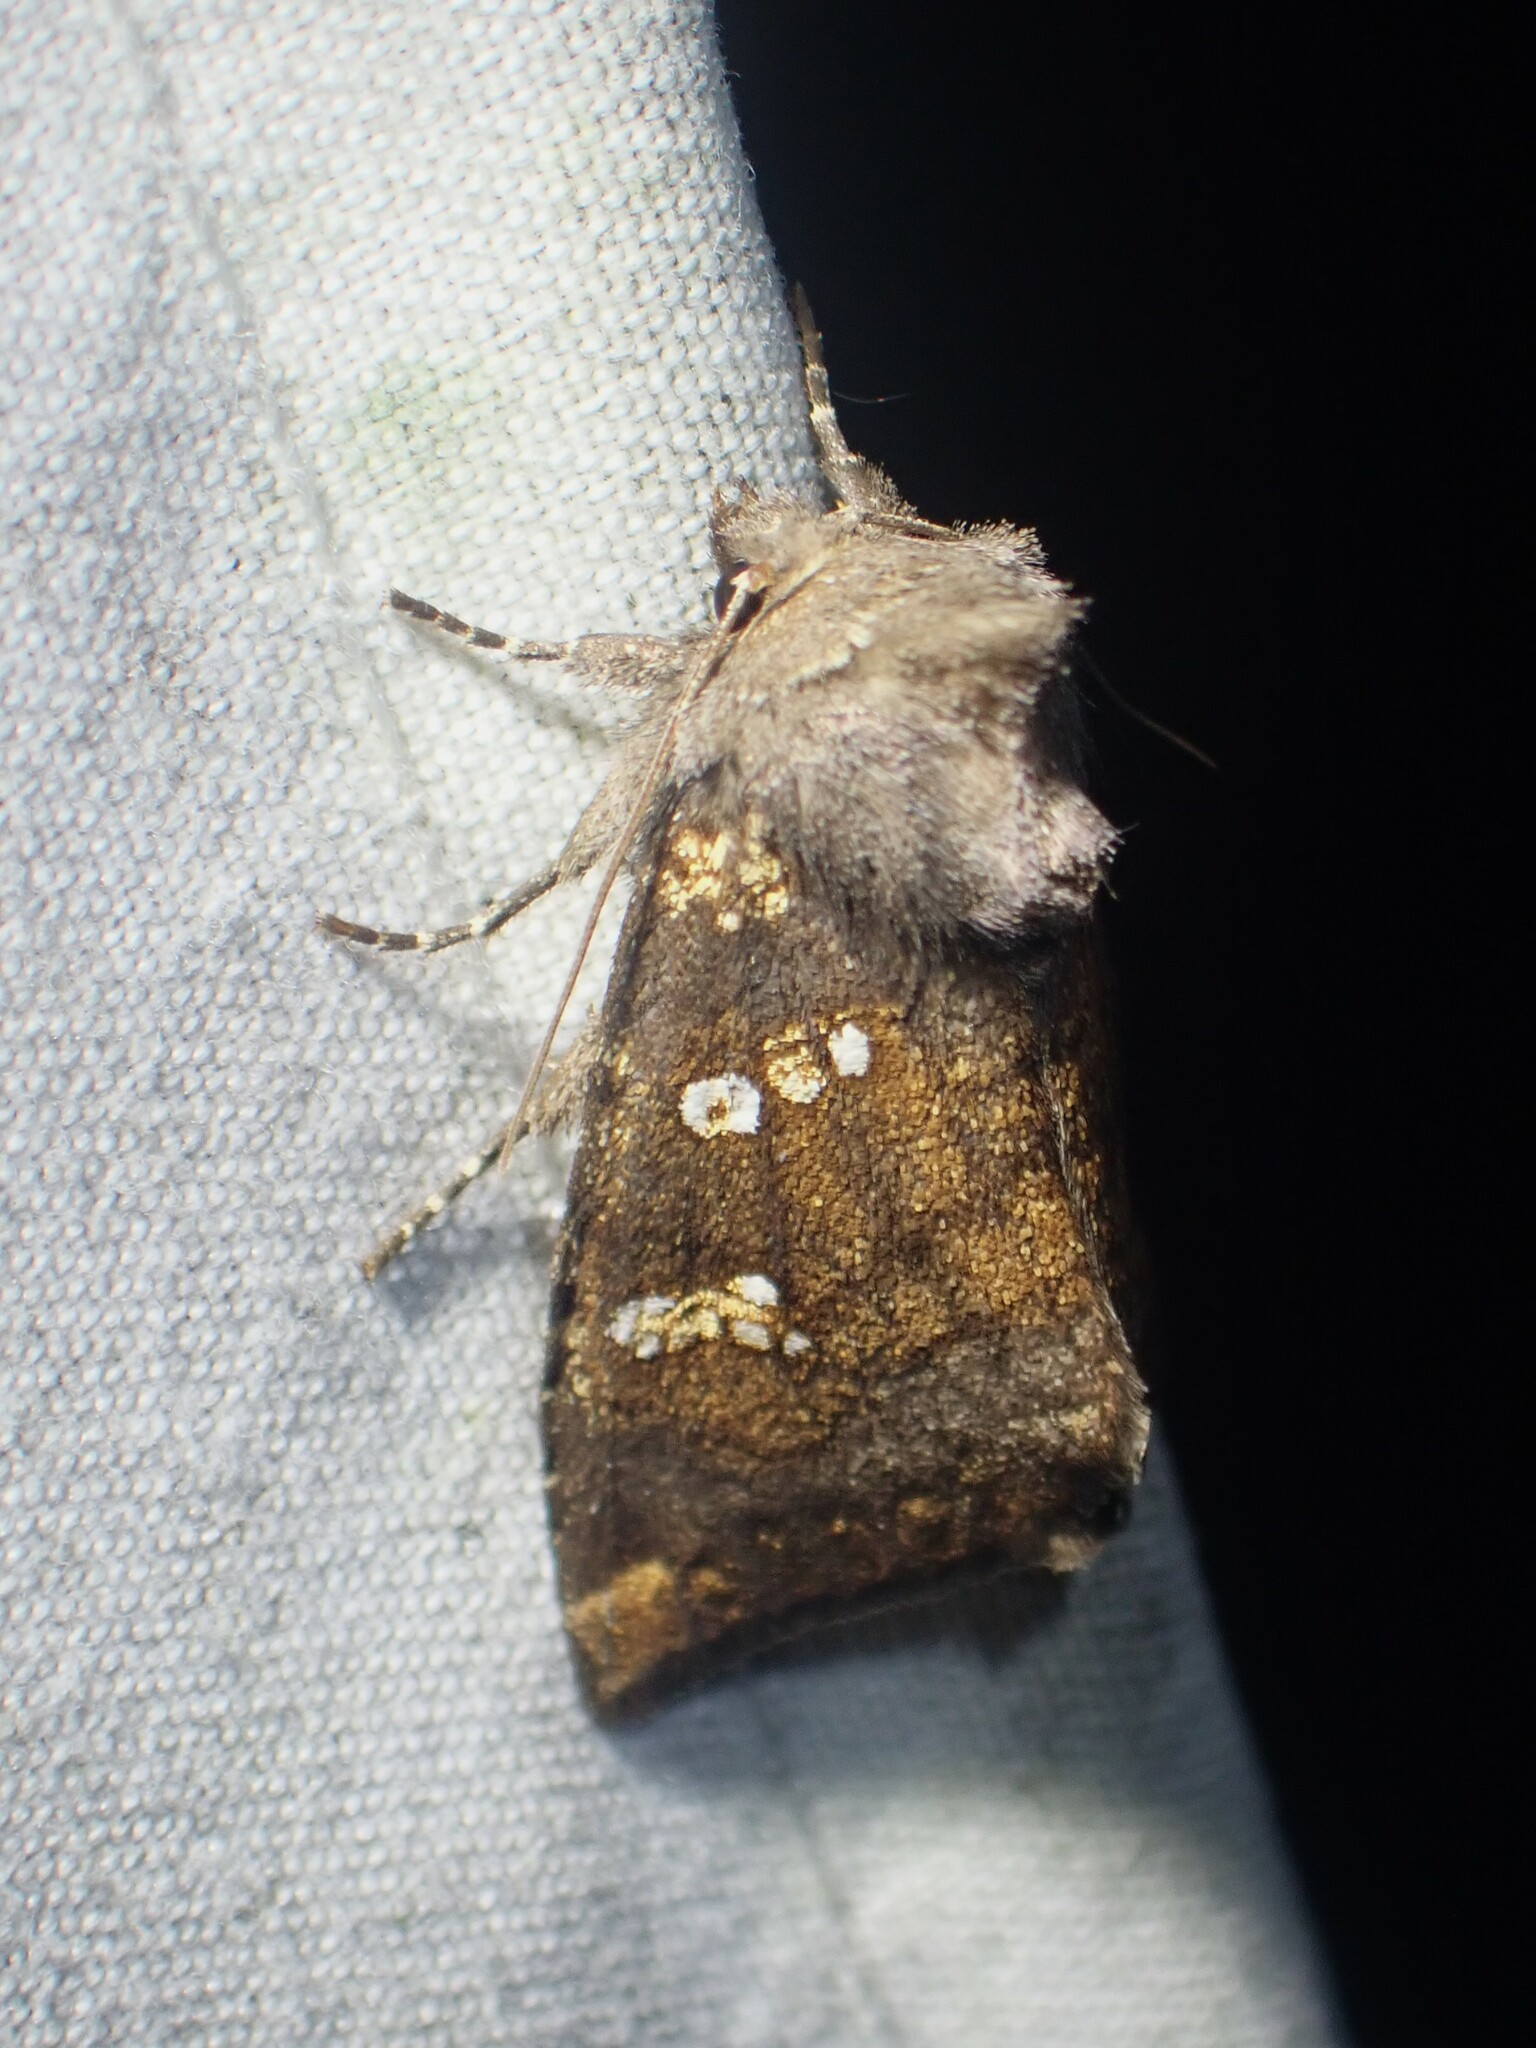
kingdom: Animalia
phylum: Arthropoda
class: Insecta
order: Lepidoptera
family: Noctuidae
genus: Papaipema
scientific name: Papaipema unimoda
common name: Meadow rue borer moth
